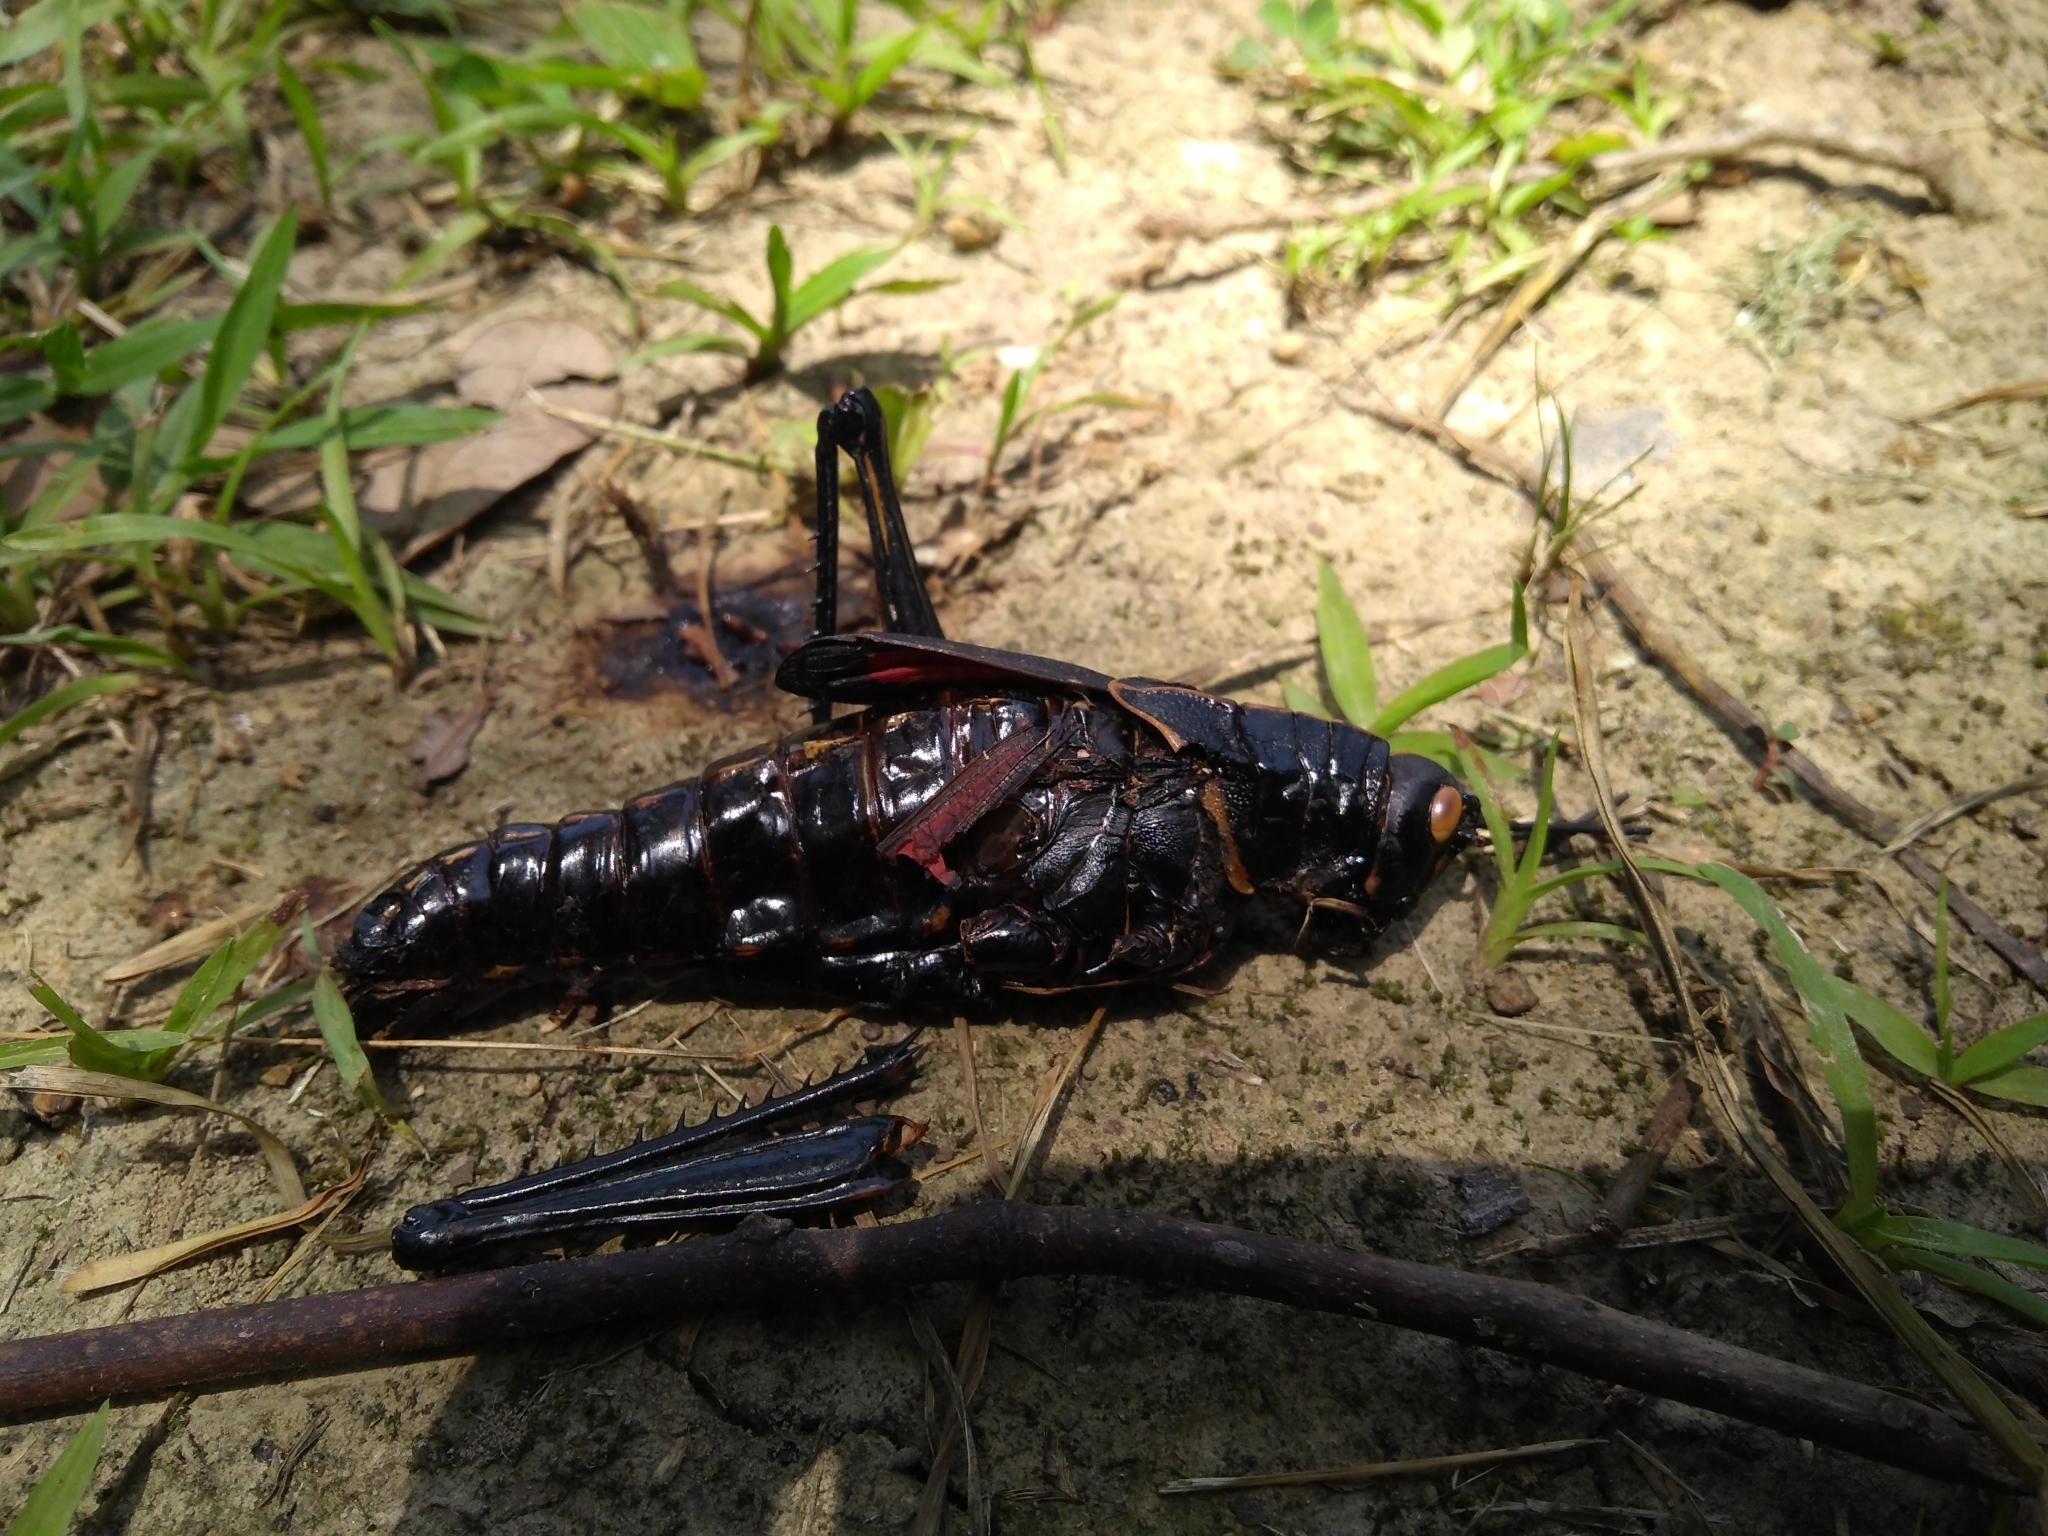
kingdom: Animalia
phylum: Arthropoda
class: Insecta
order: Orthoptera
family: Romaleidae
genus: Romalea
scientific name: Romalea microptera
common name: Eastern lubber grasshopper
